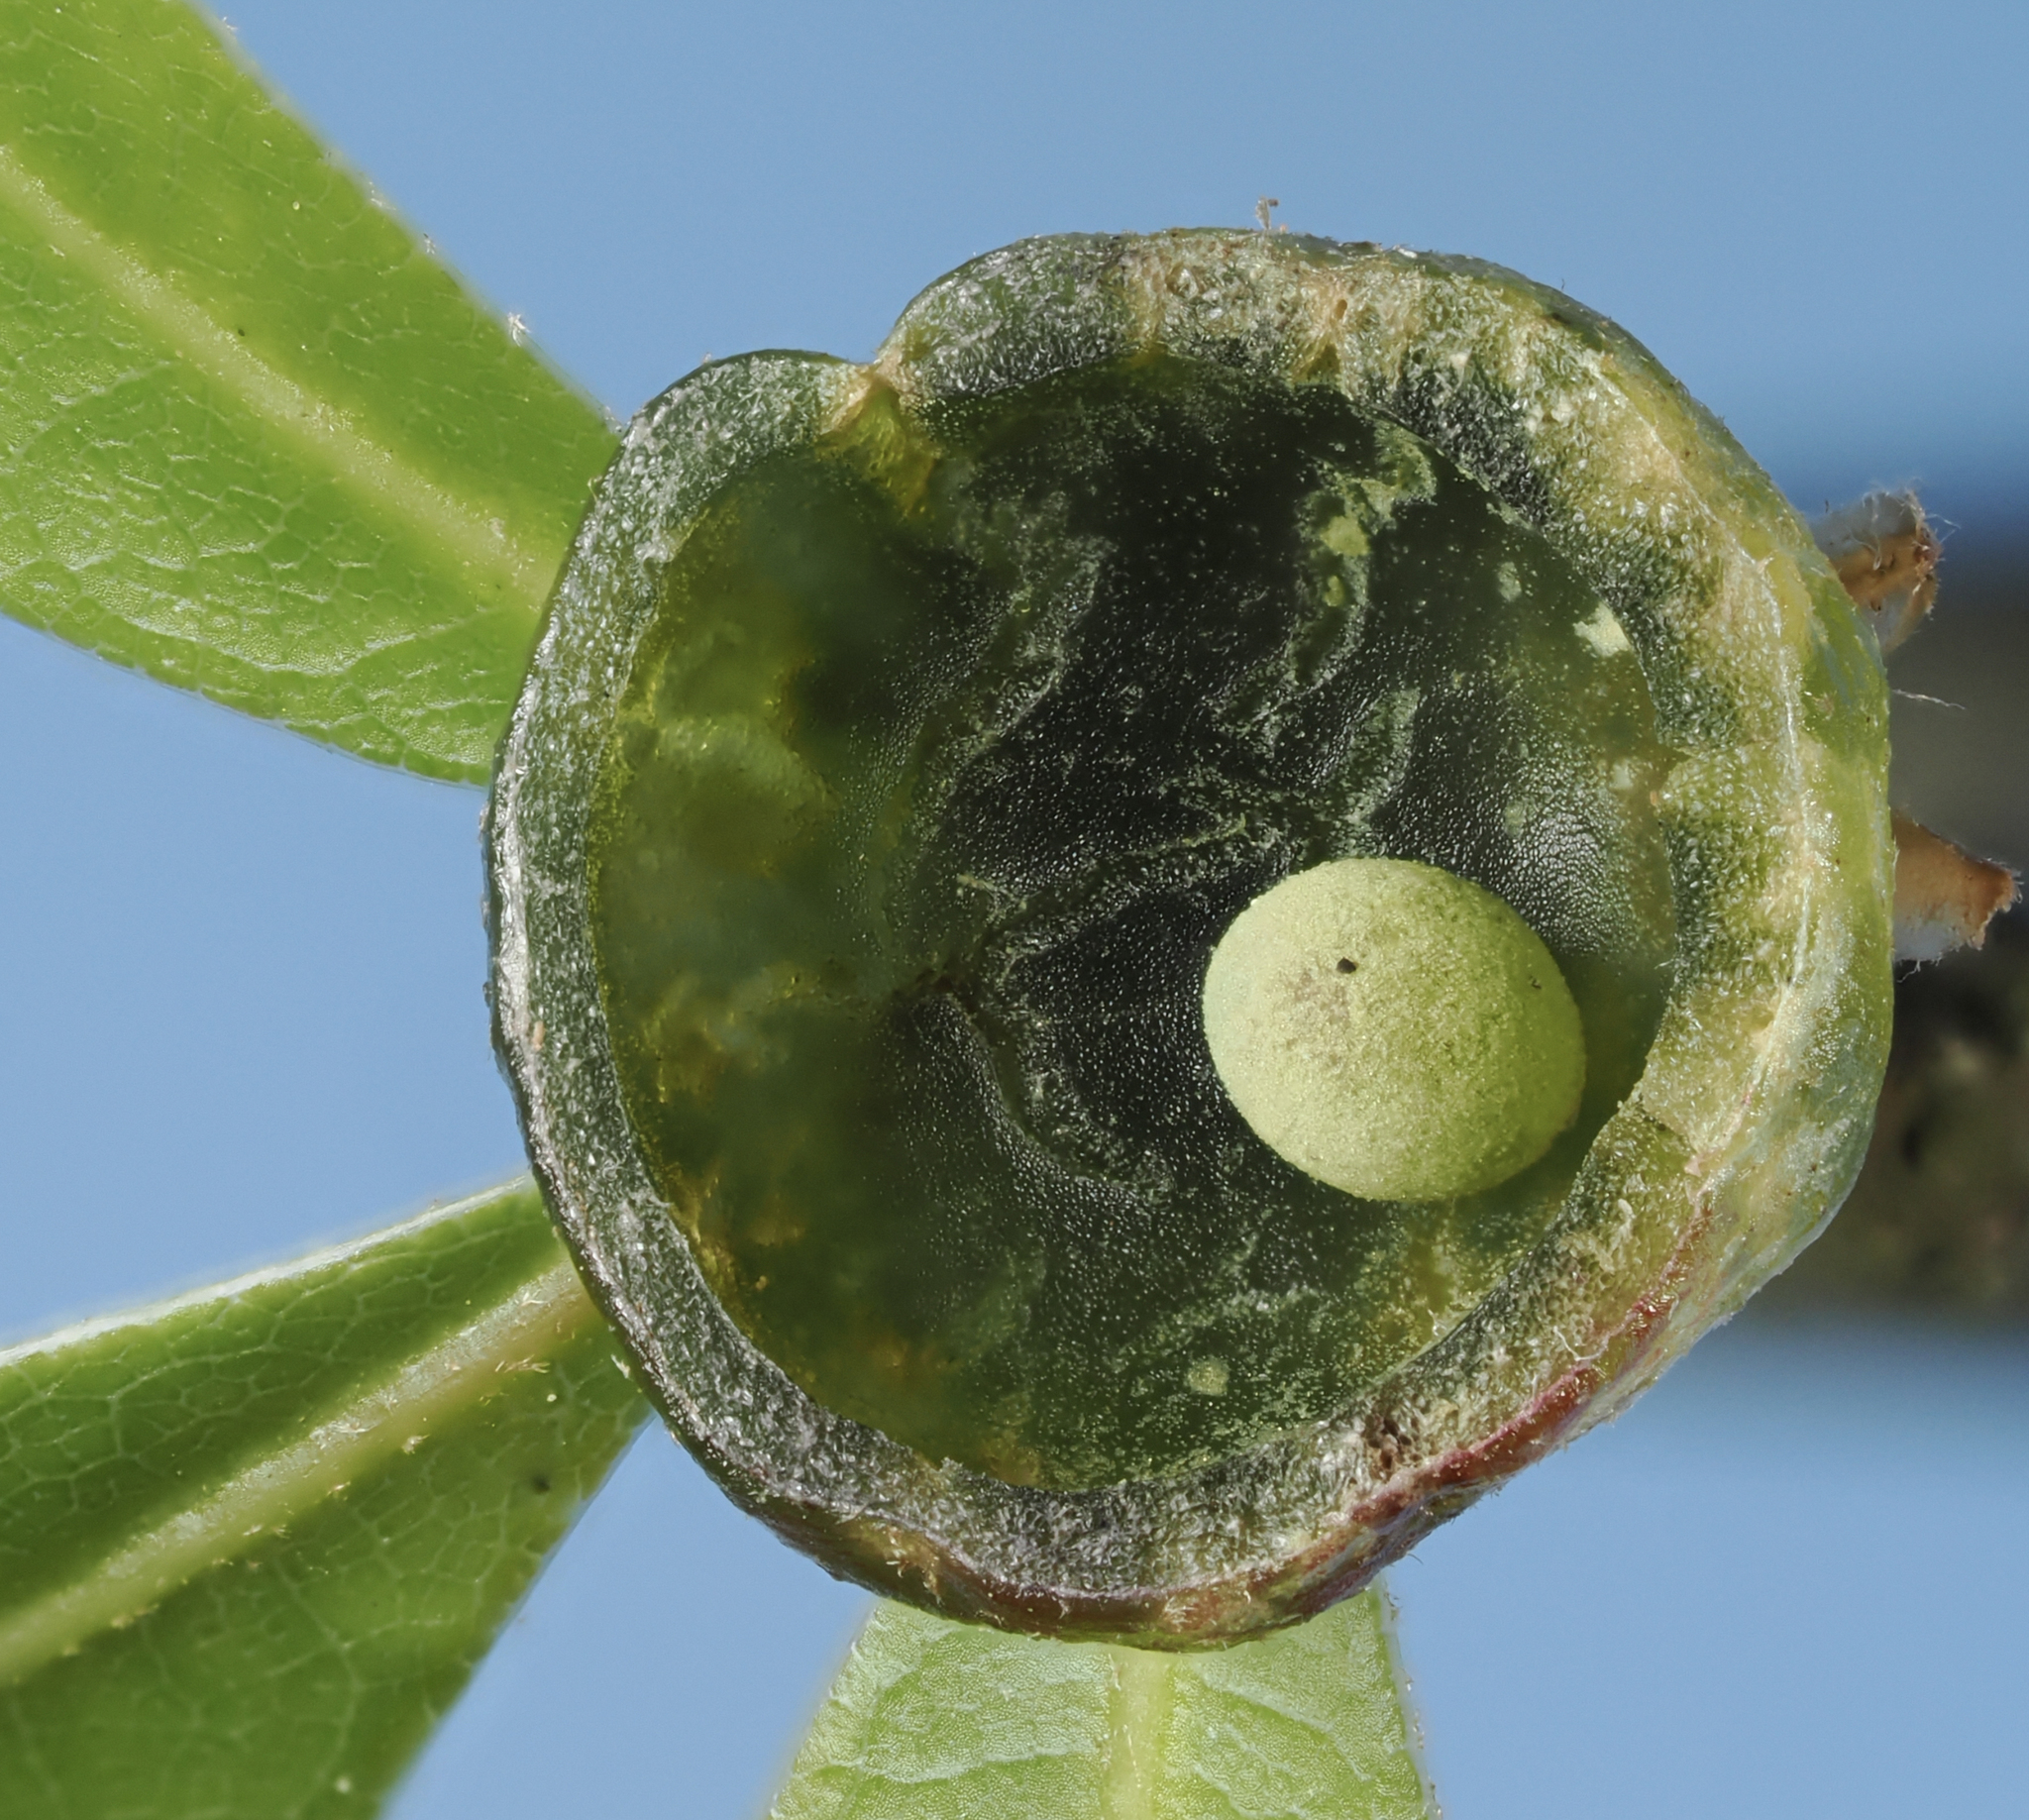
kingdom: Animalia
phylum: Arthropoda
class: Insecta
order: Hymenoptera
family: Cynipidae
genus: Dryocosmus
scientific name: Dryocosmus quercuspalustris
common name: Succulent oak gall wasp
